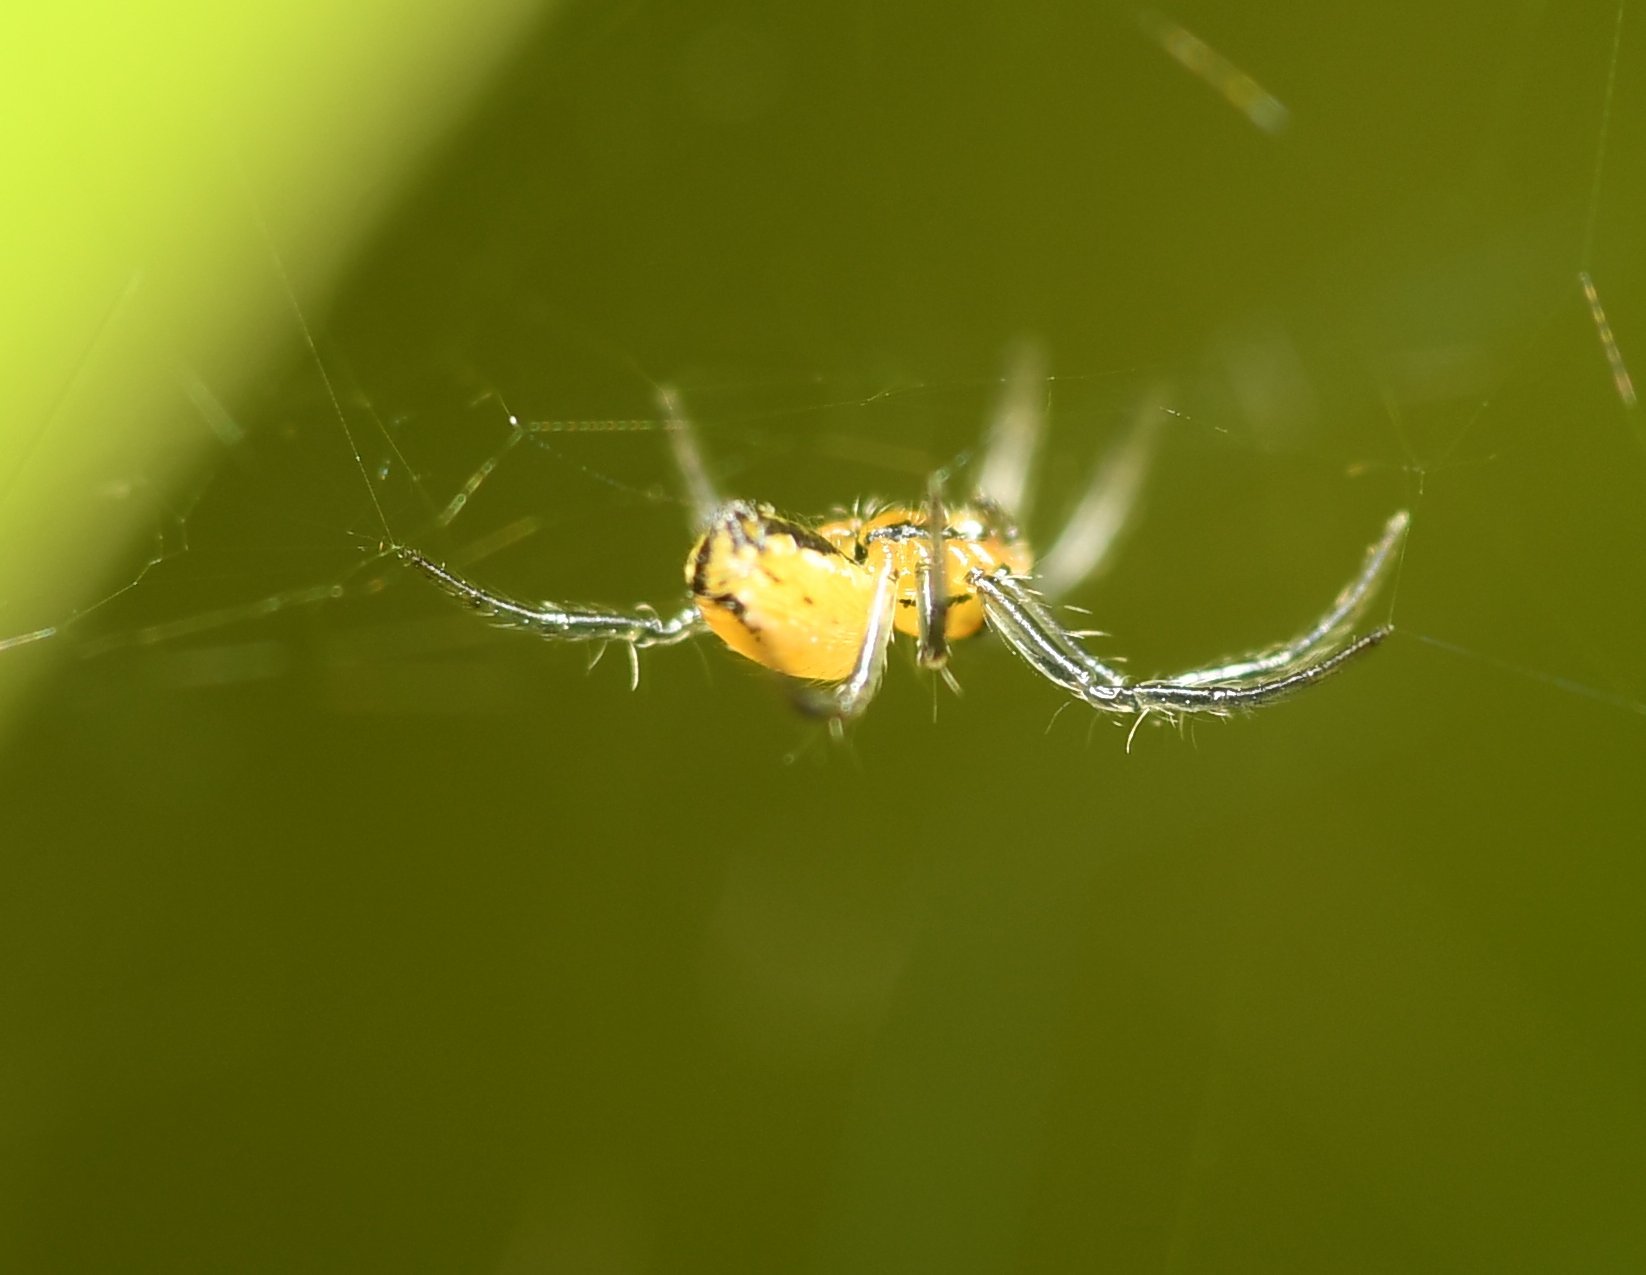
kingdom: Animalia
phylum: Arthropoda
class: Arachnida
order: Araneae
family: Araneidae
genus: Mecynogea
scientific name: Mecynogea lemniscata
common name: Orb weavers
